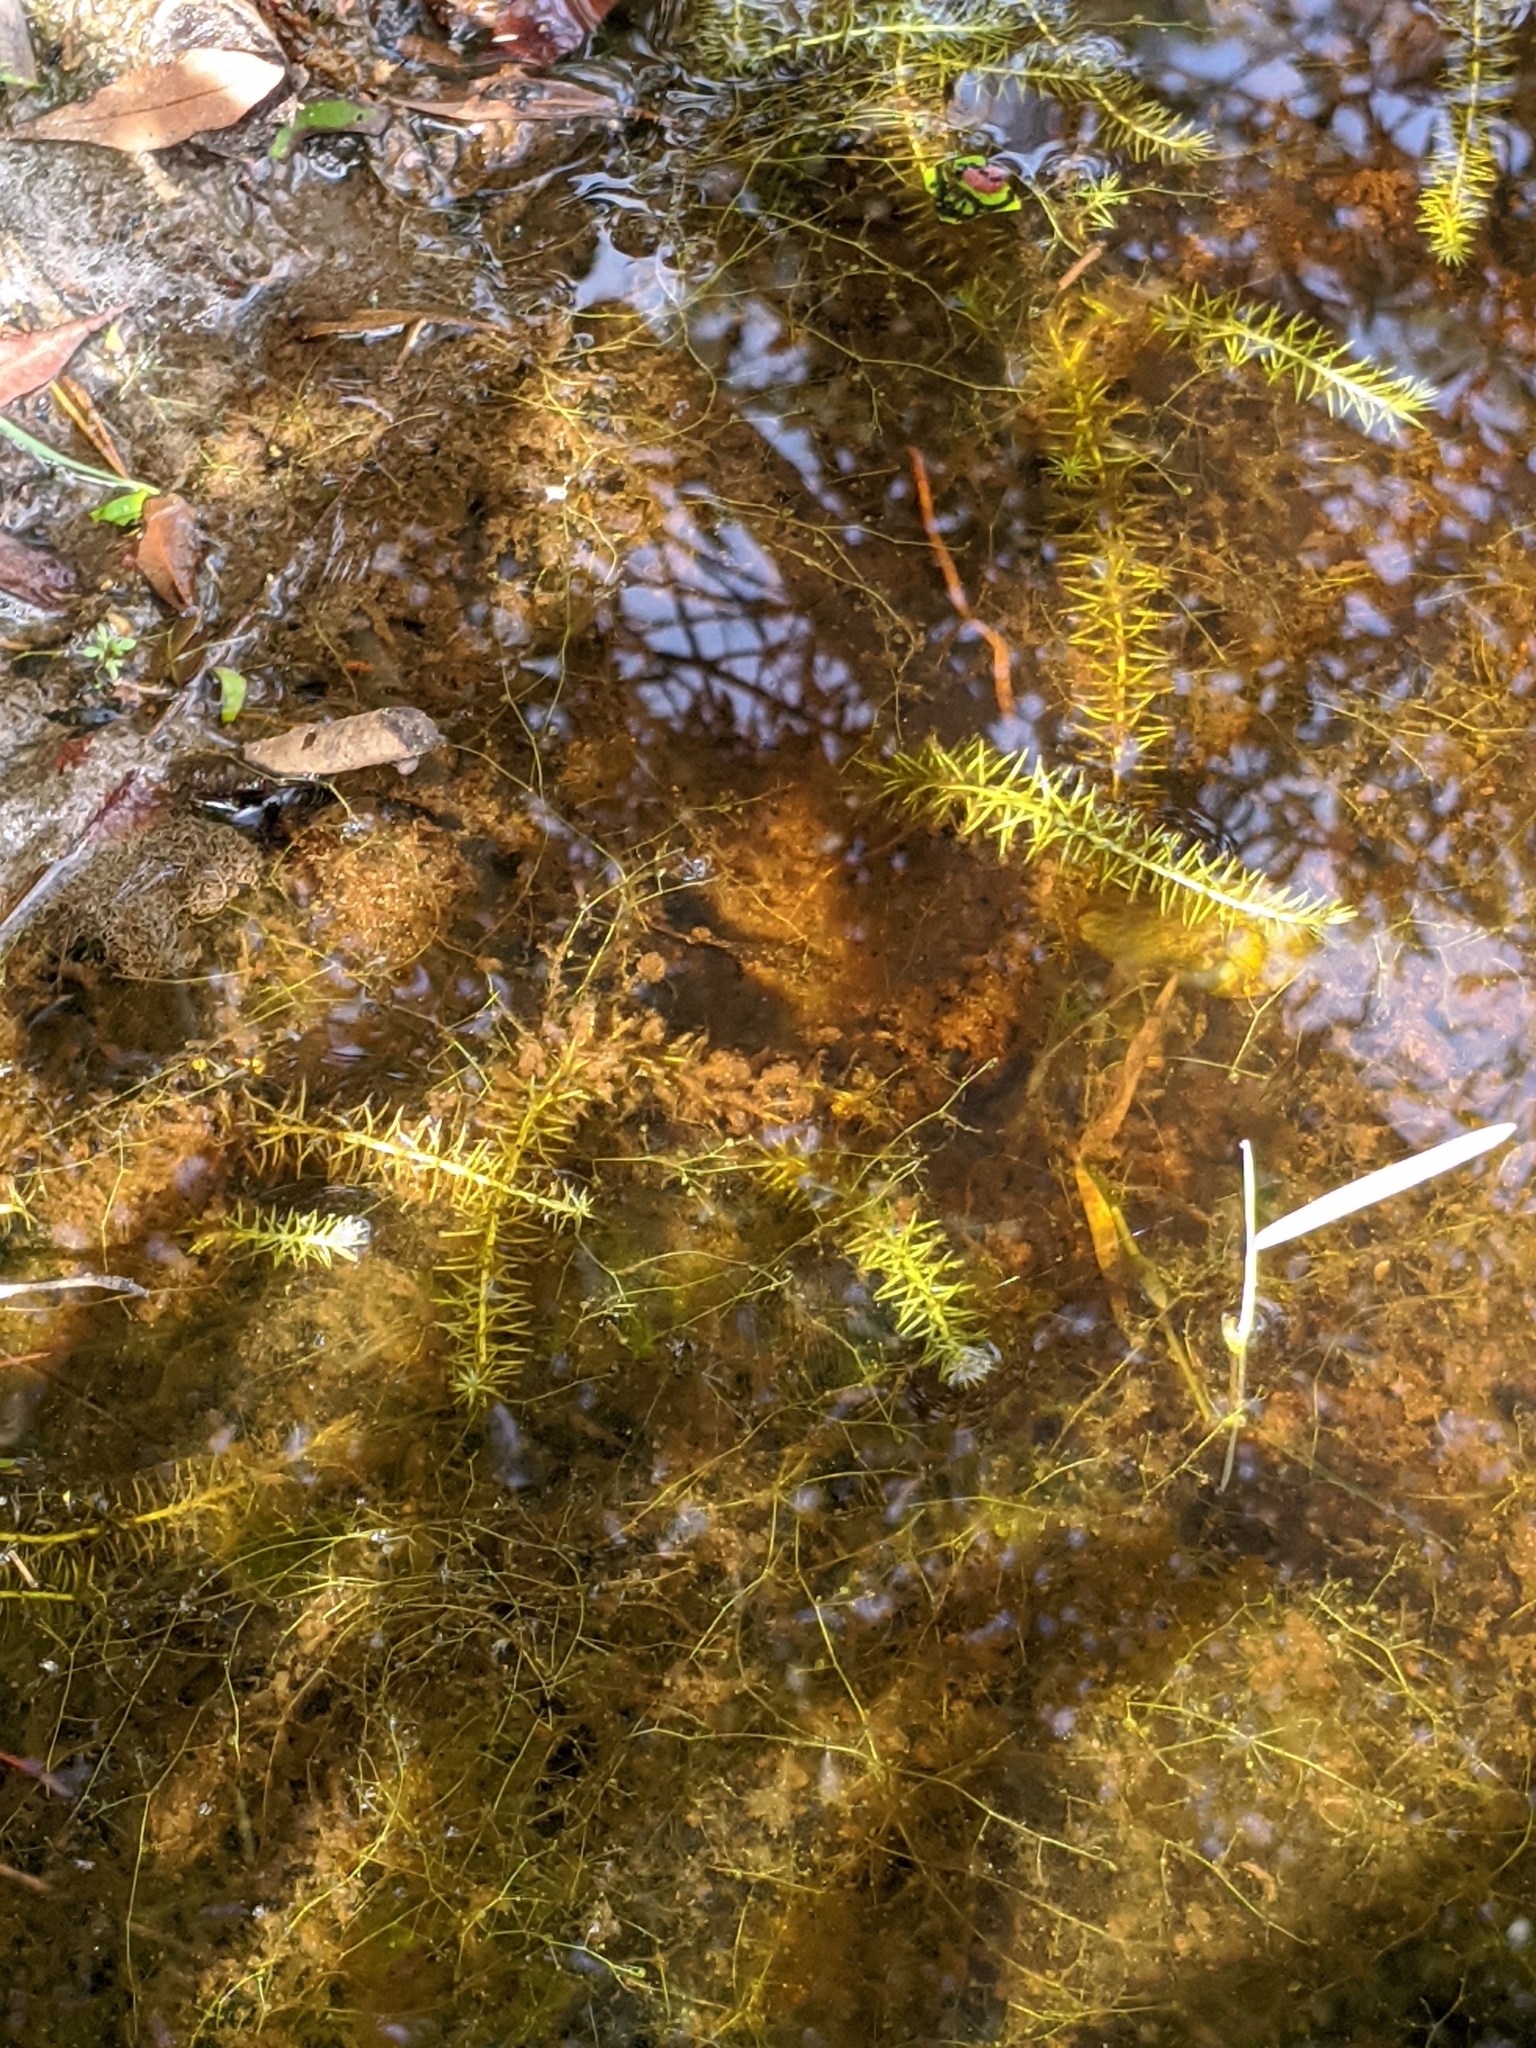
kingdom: Plantae
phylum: Tracheophyta
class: Liliopsida
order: Poales
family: Mayacaceae
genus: Mayaca
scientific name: Mayaca fluviatilis
